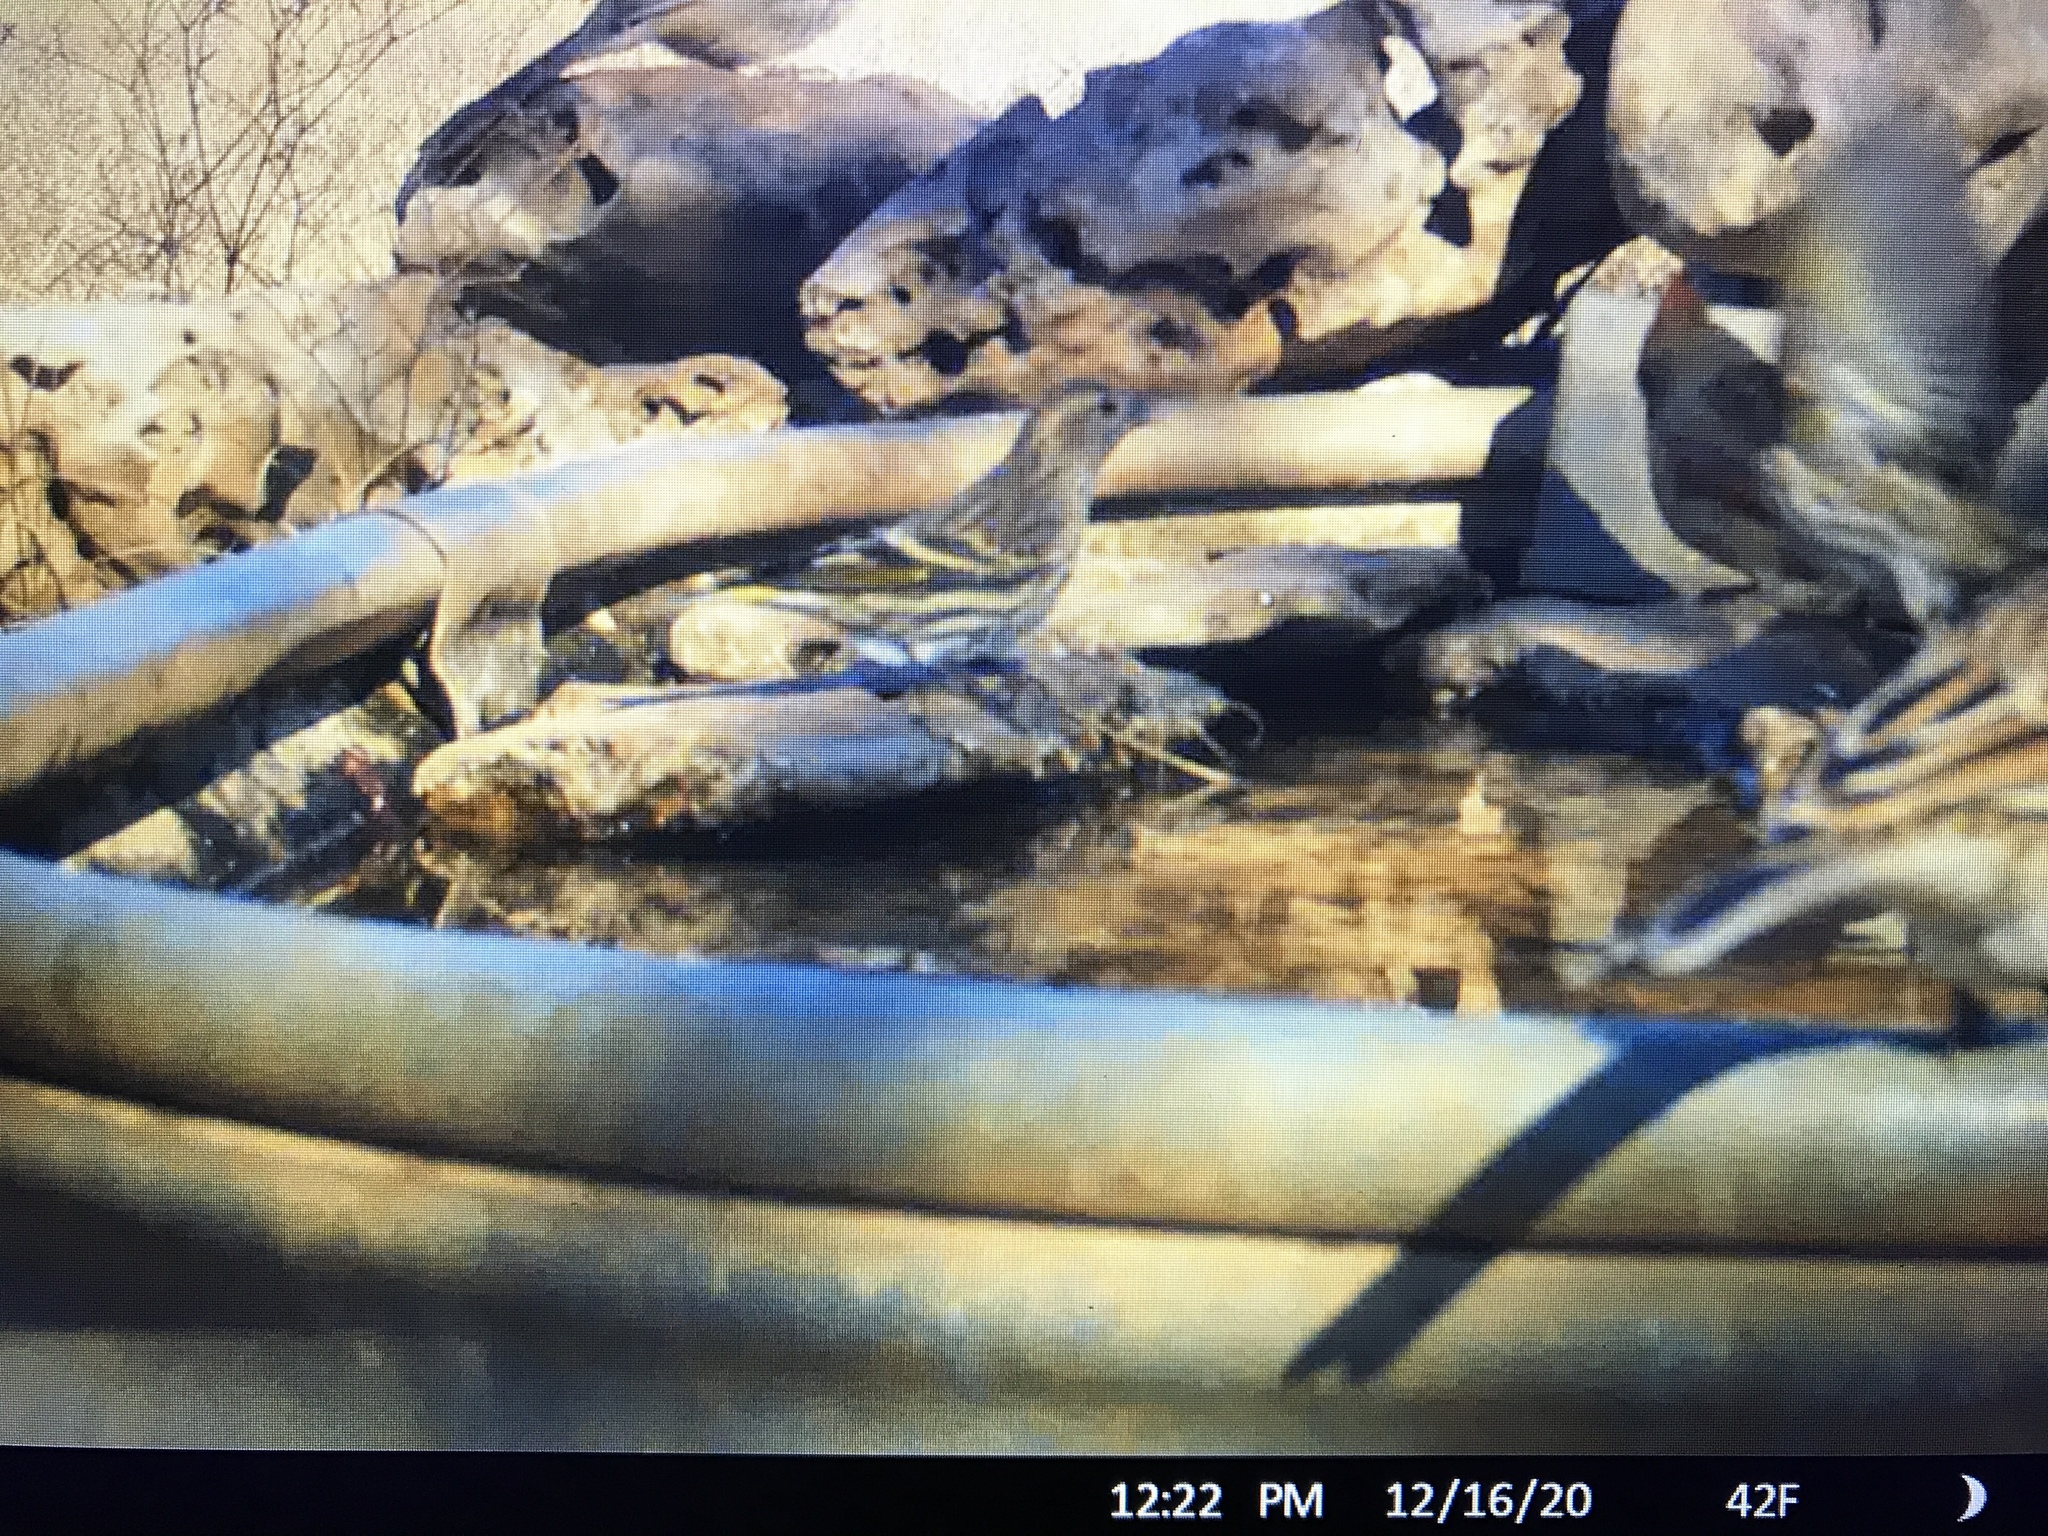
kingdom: Animalia
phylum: Chordata
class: Aves
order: Passeriformes
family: Fringillidae
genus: Spinus
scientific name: Spinus pinus
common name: Pine siskin
